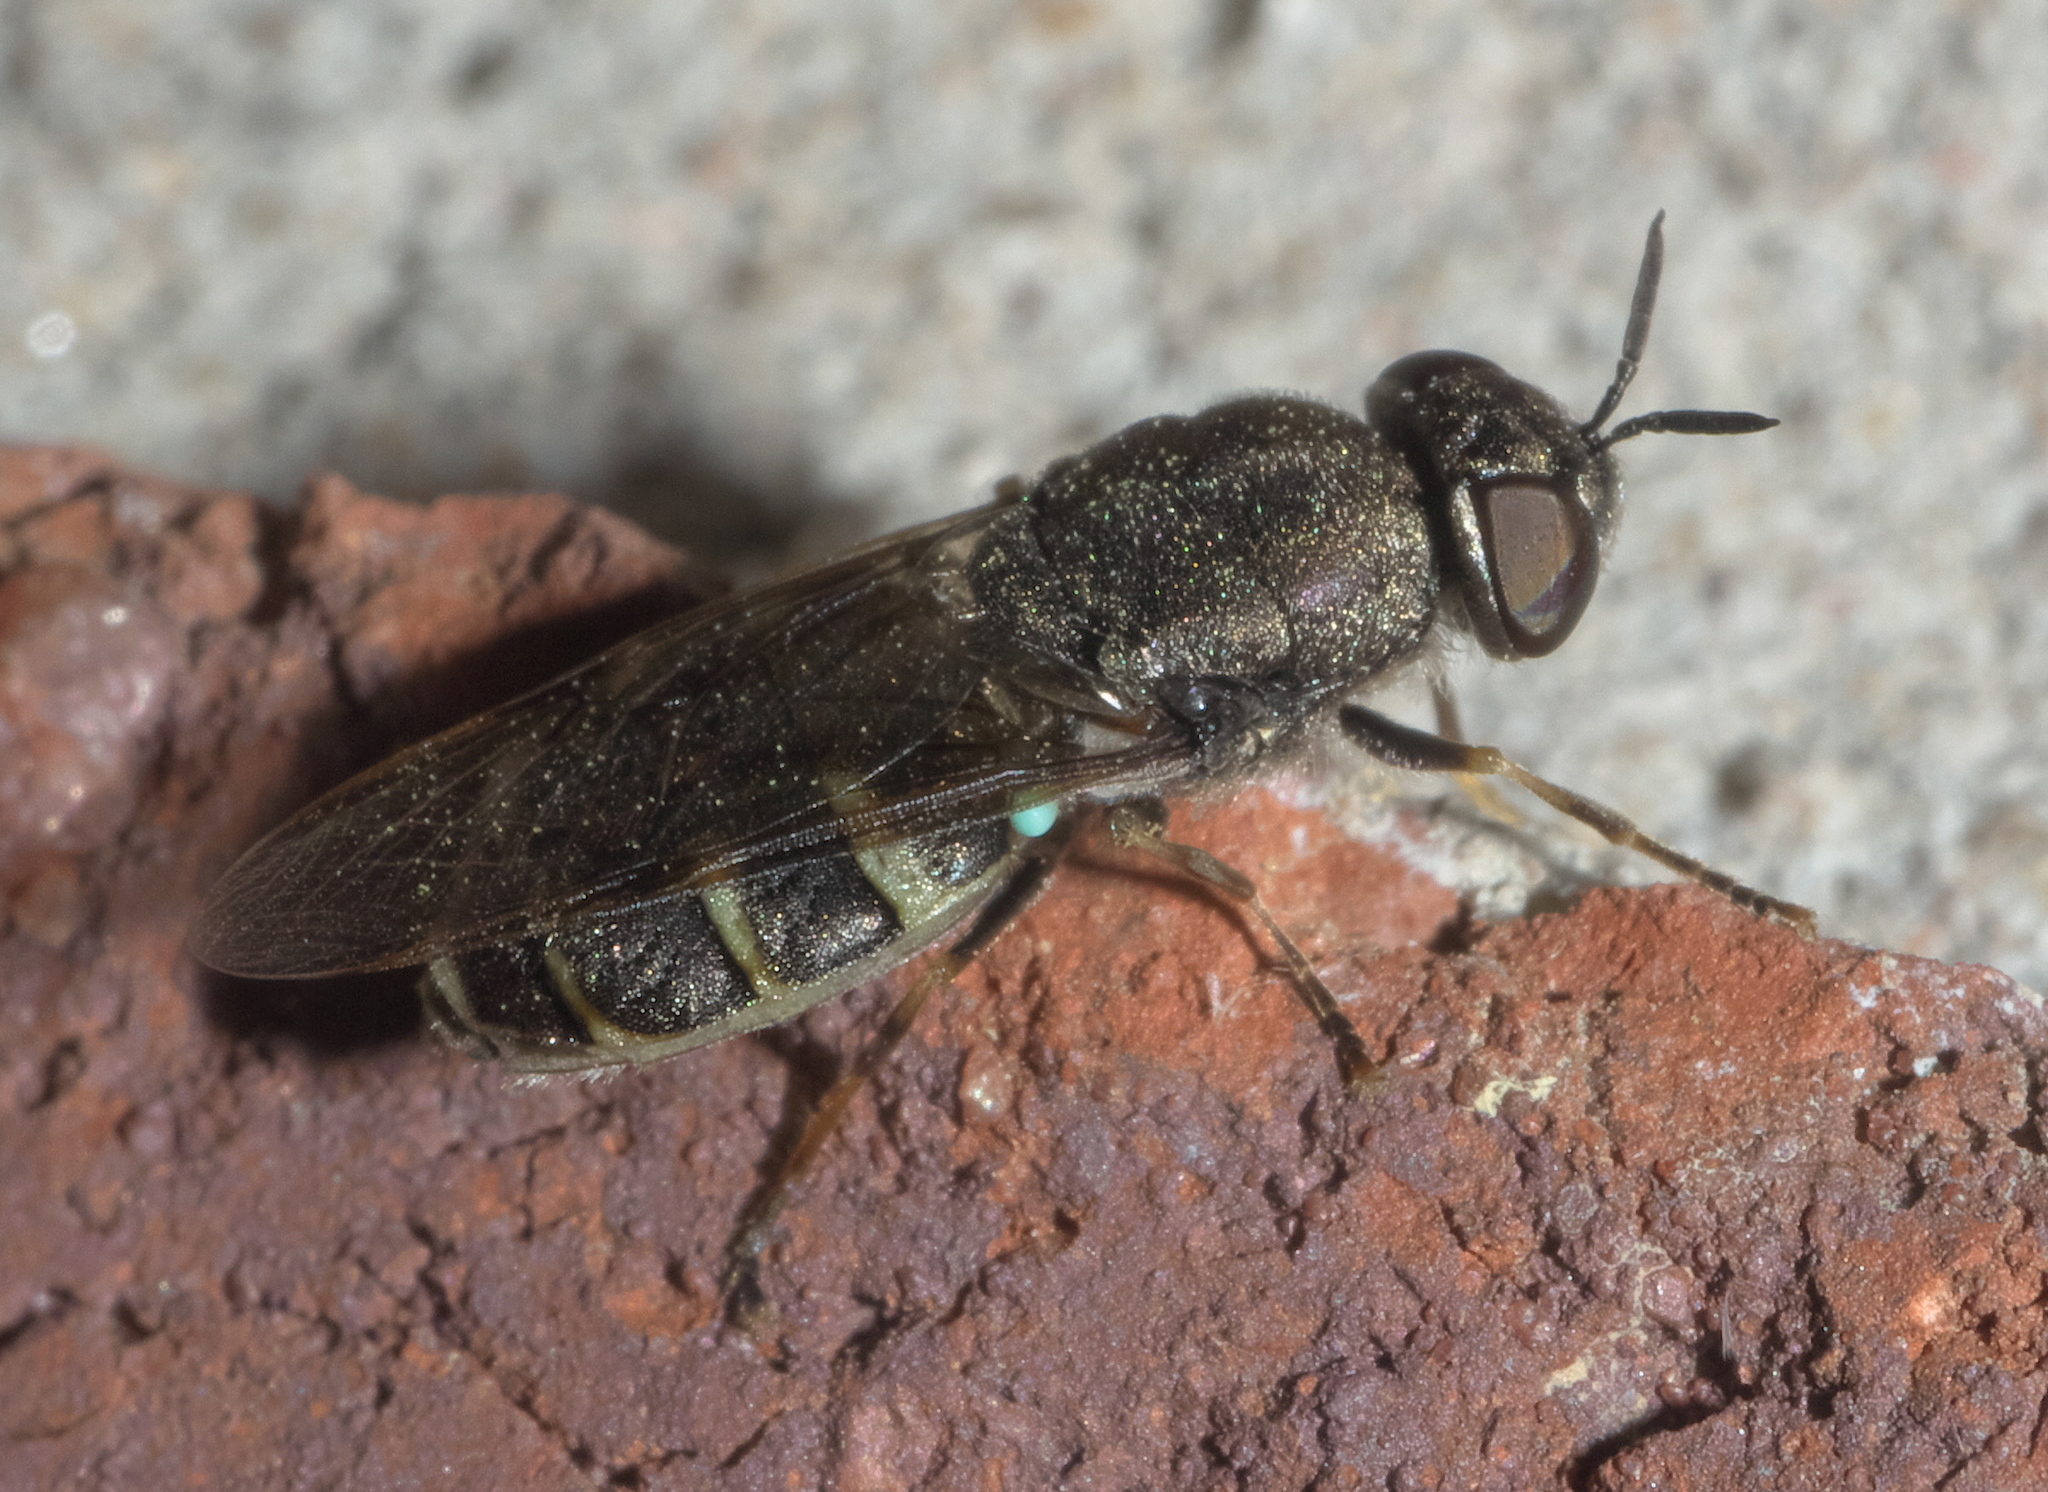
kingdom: Animalia
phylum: Arthropoda
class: Insecta
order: Diptera
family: Stratiomyidae
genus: Odontomyia
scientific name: Odontomyia interrupta
